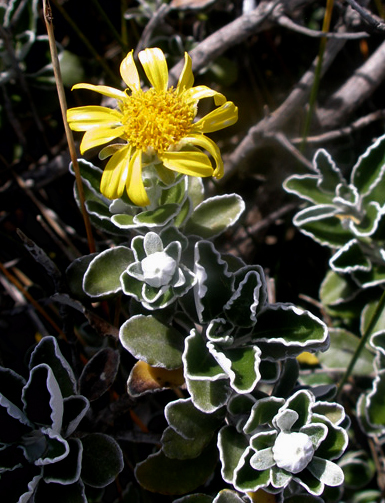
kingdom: Plantae
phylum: Tracheophyta
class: Magnoliopsida
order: Asterales
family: Asteraceae
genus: Brachyglottis
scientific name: Brachyglottis compacta
